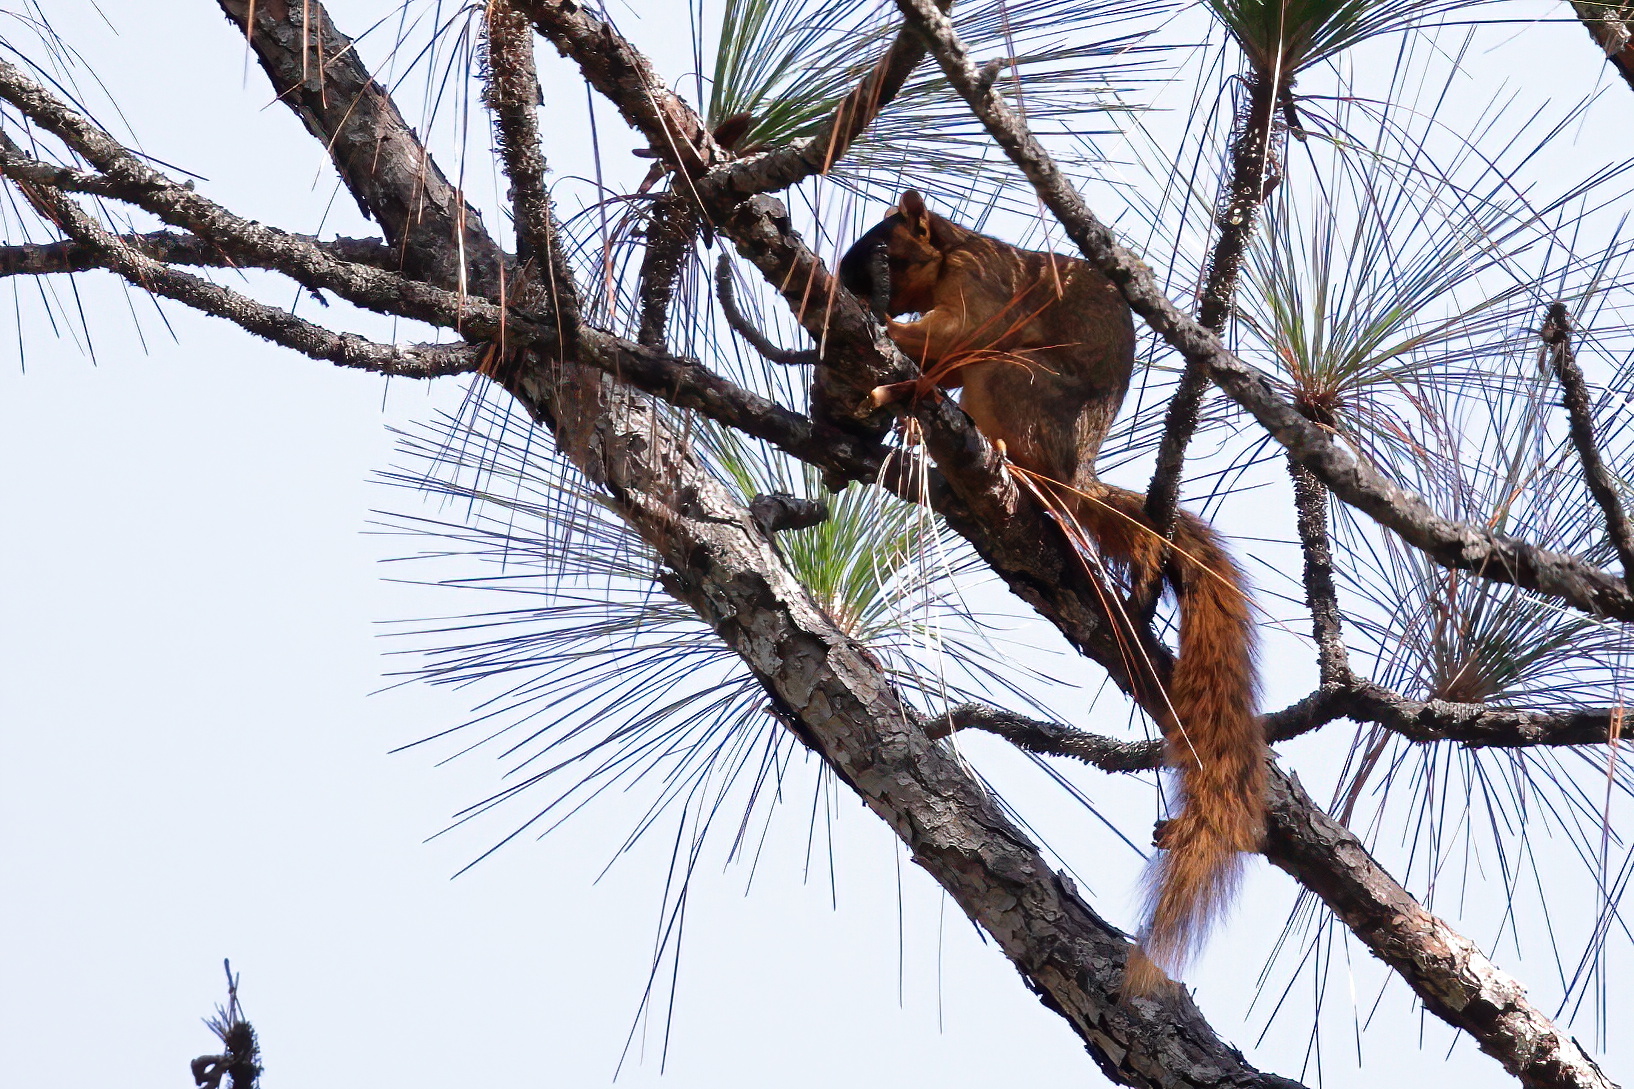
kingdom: Animalia
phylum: Chordata
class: Mammalia
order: Rodentia
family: Sciuridae
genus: Sciurus
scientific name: Sciurus niger
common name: Fox squirrel
